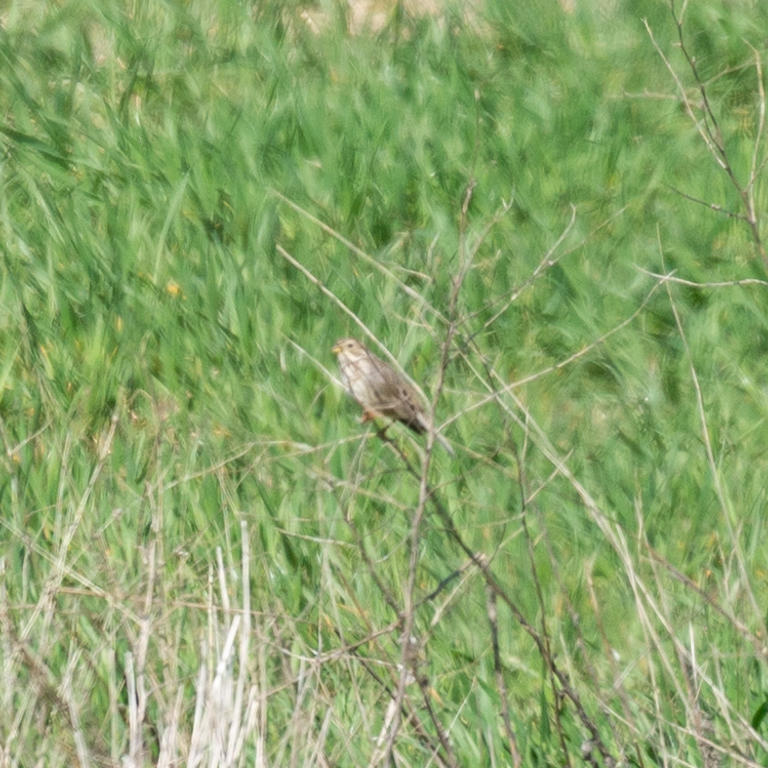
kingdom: Animalia
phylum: Chordata
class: Aves
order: Passeriformes
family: Emberizidae
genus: Emberiza
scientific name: Emberiza calandra
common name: Corn bunting
